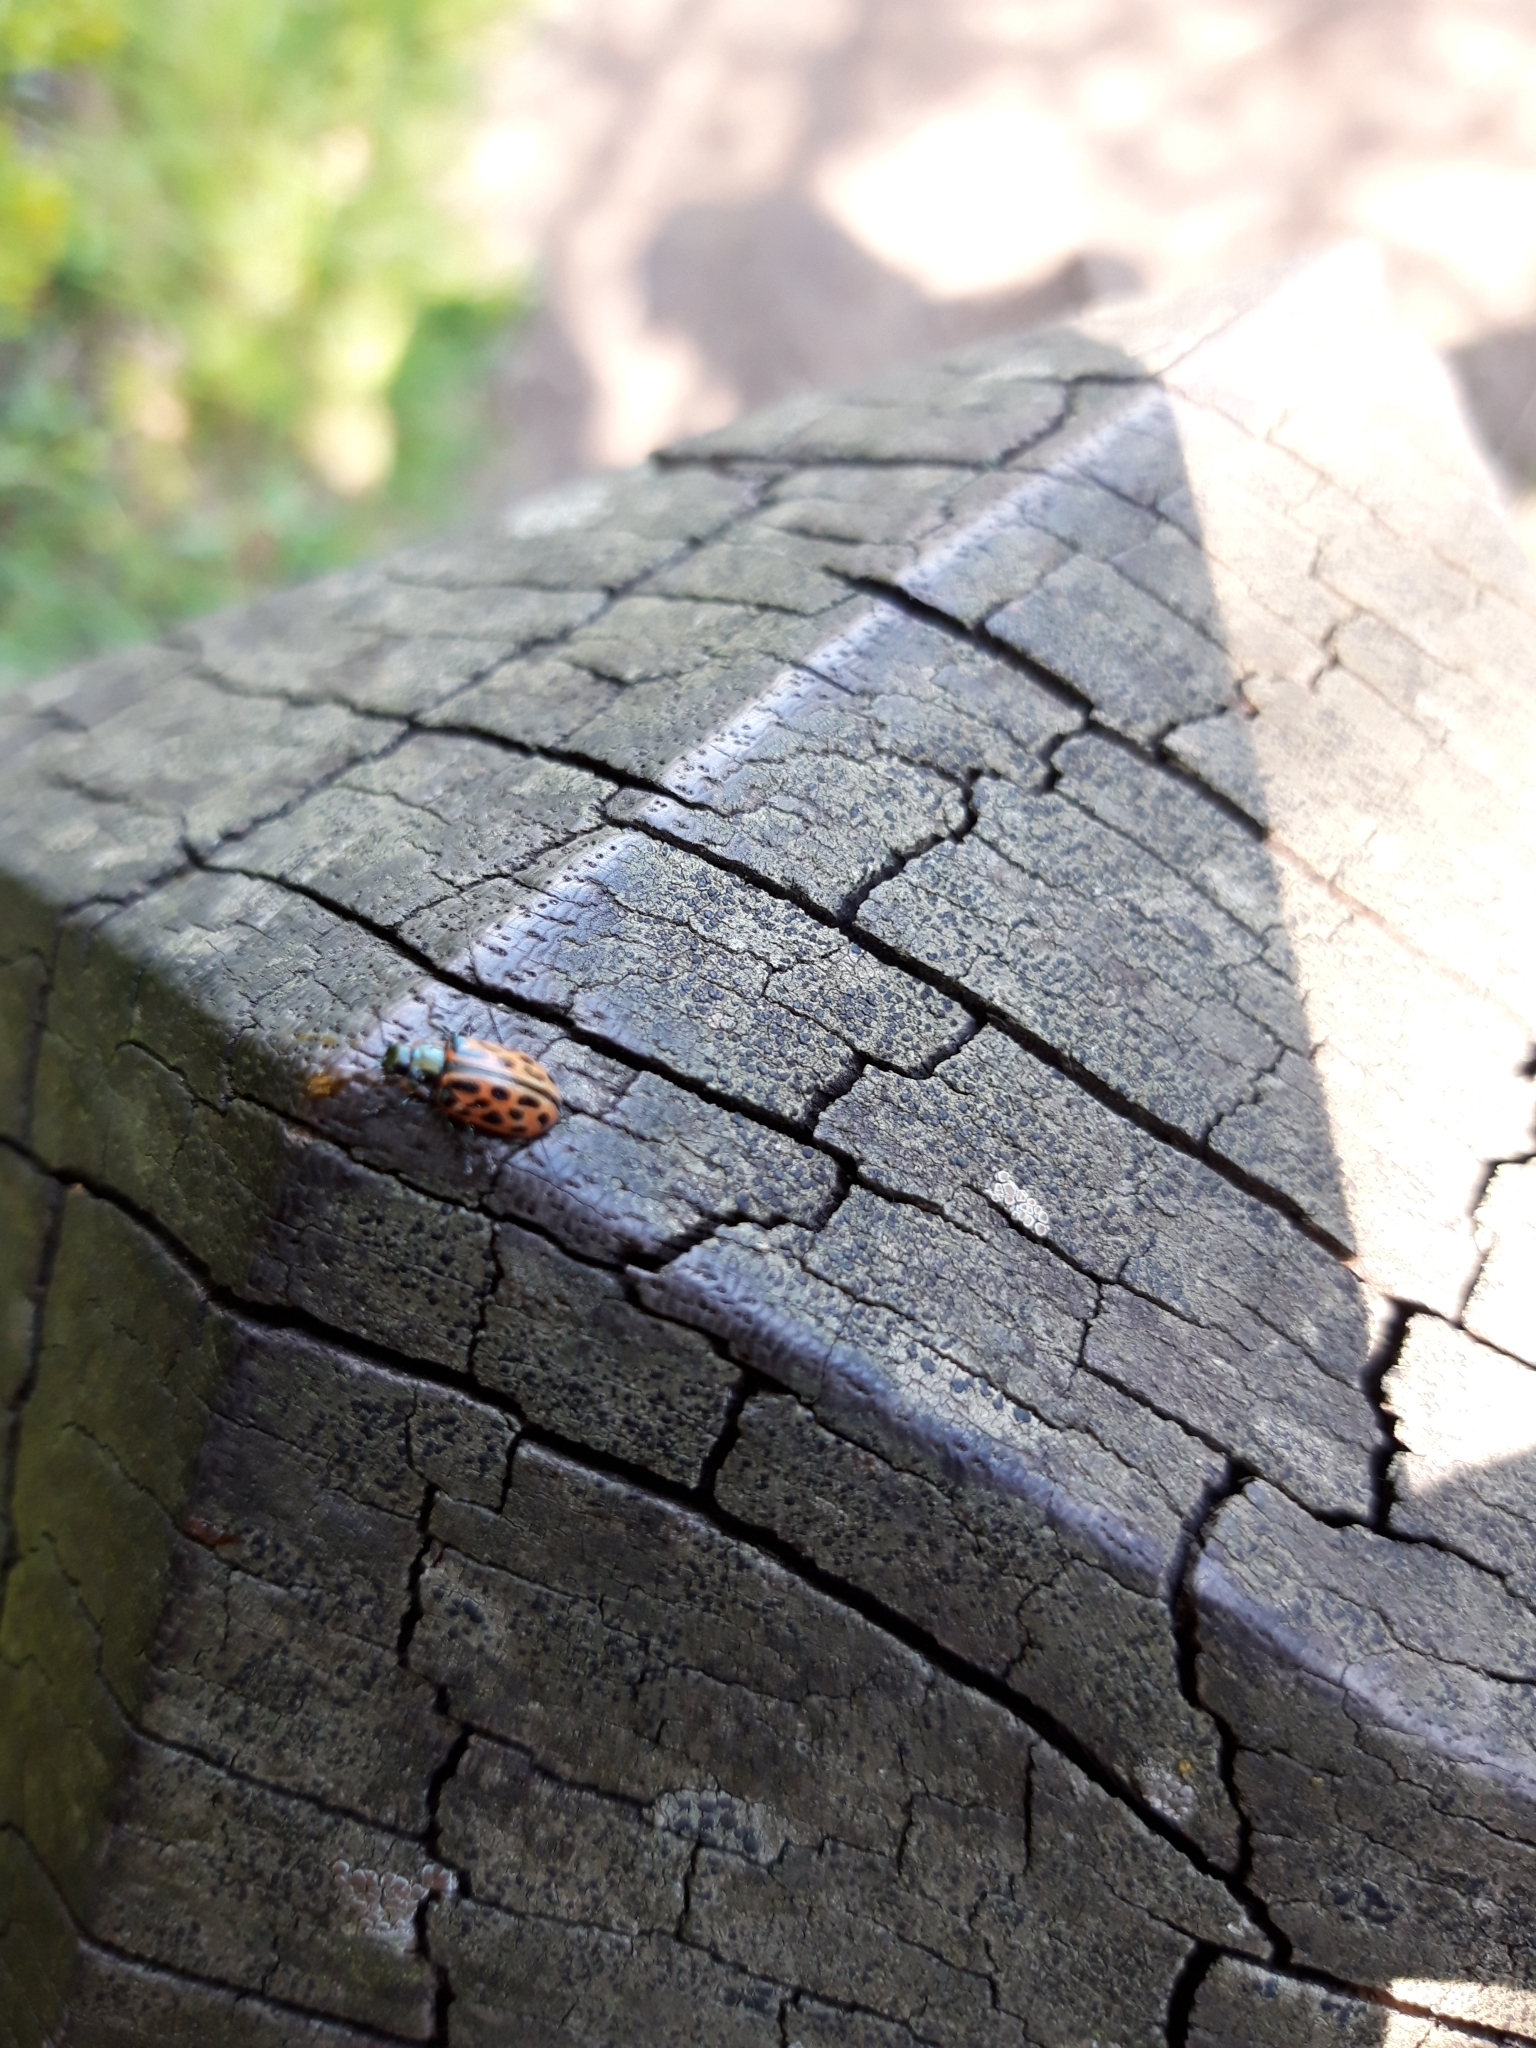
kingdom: Animalia
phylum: Arthropoda
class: Insecta
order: Coleoptera
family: Chrysomelidae
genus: Chrysomela
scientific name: Chrysomela vigintipunctata
